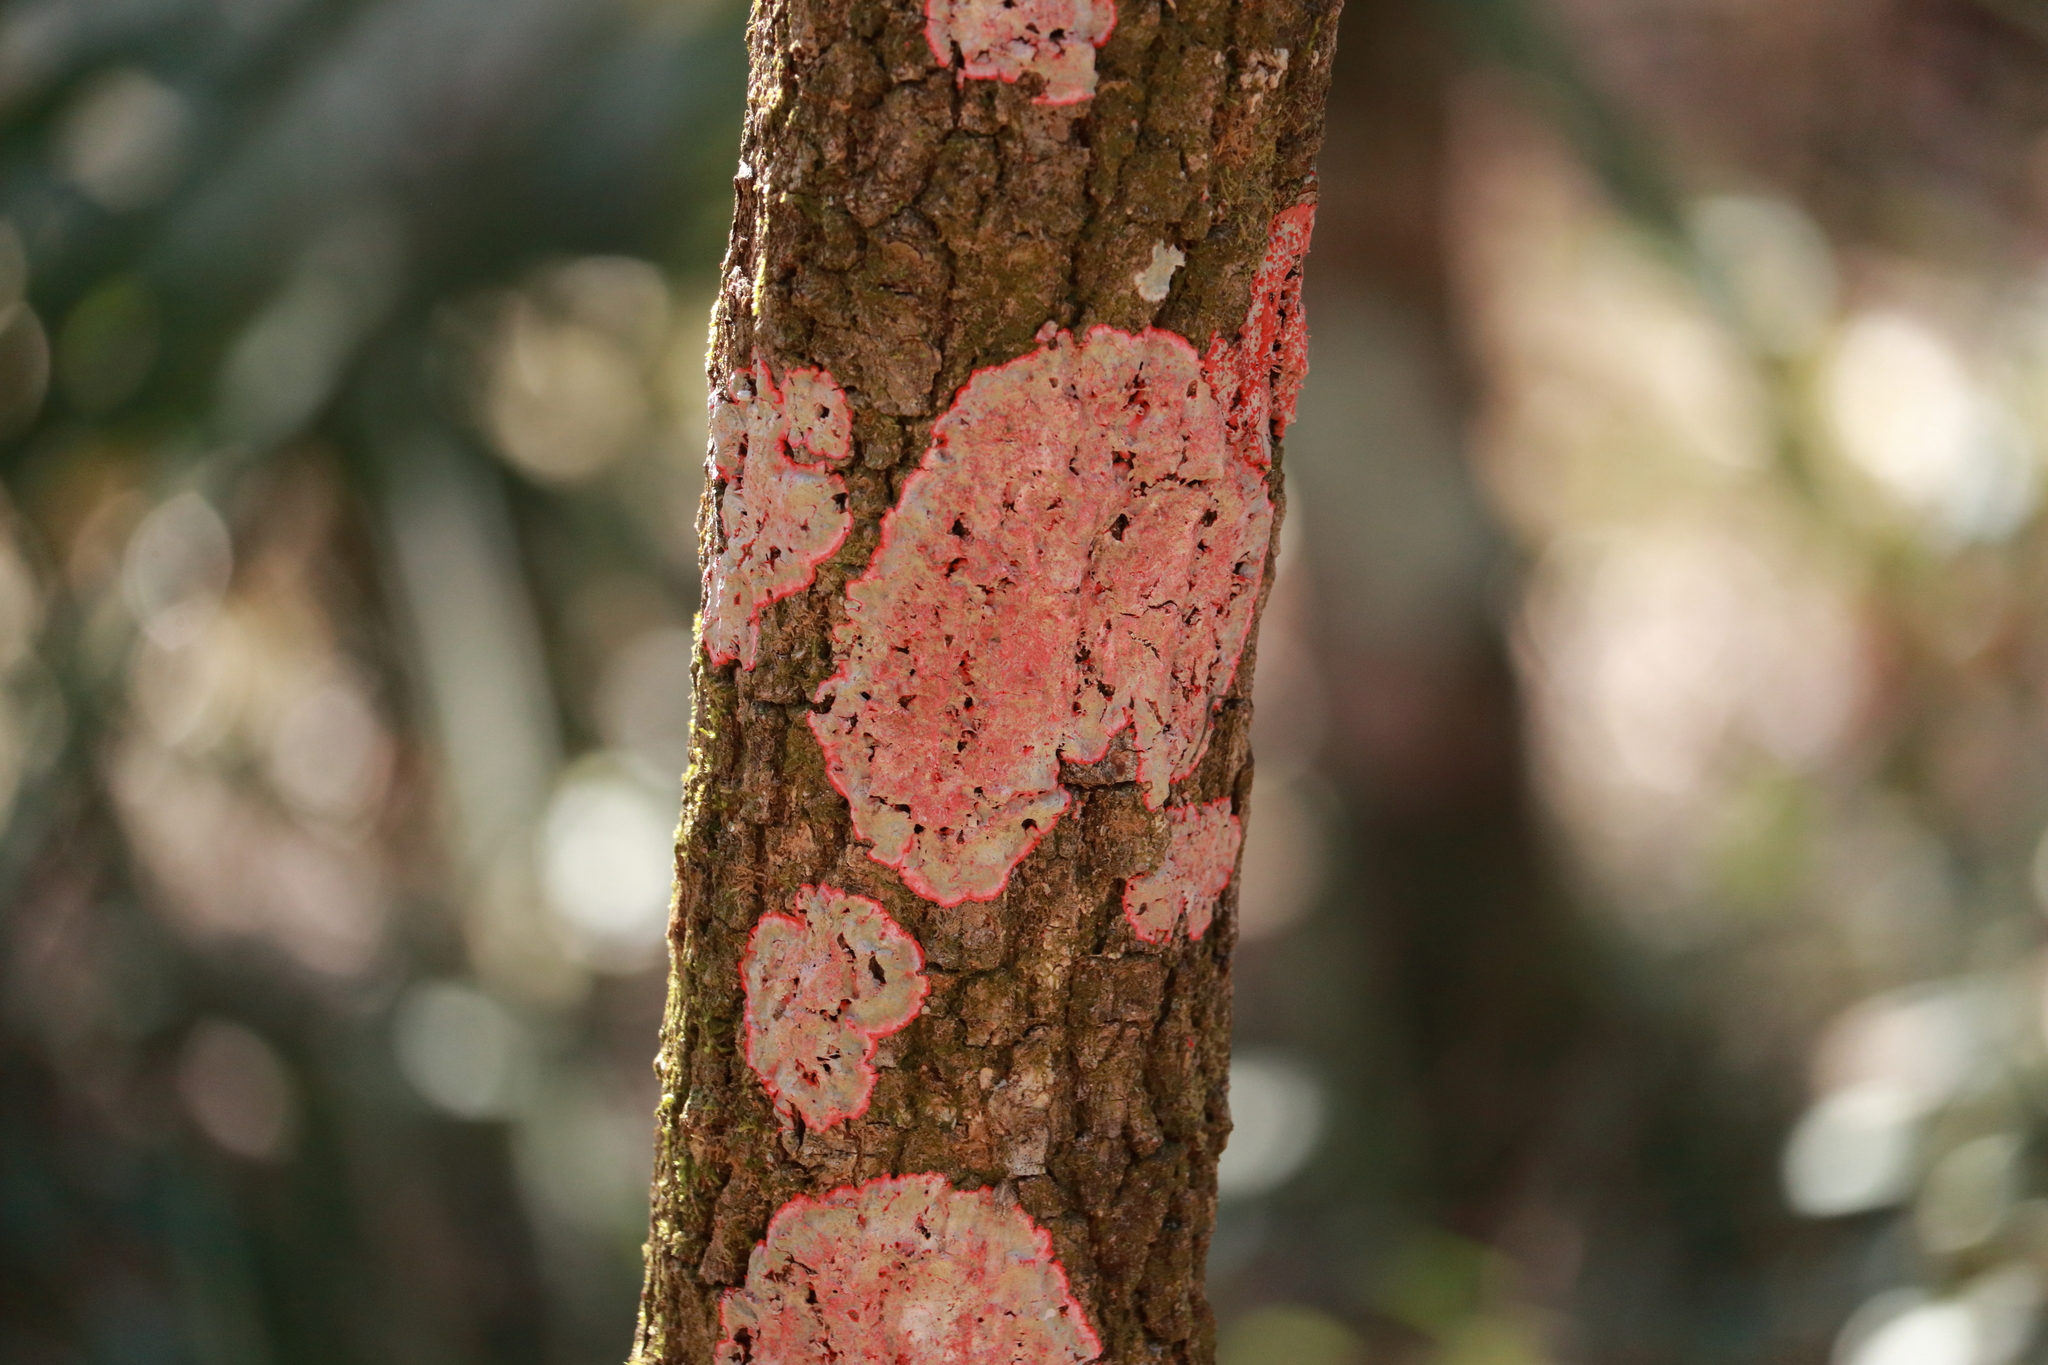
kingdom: Fungi
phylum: Ascomycota
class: Arthoniomycetes
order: Arthoniales
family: Arthoniaceae
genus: Herpothallon
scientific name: Herpothallon rubrocinctum
